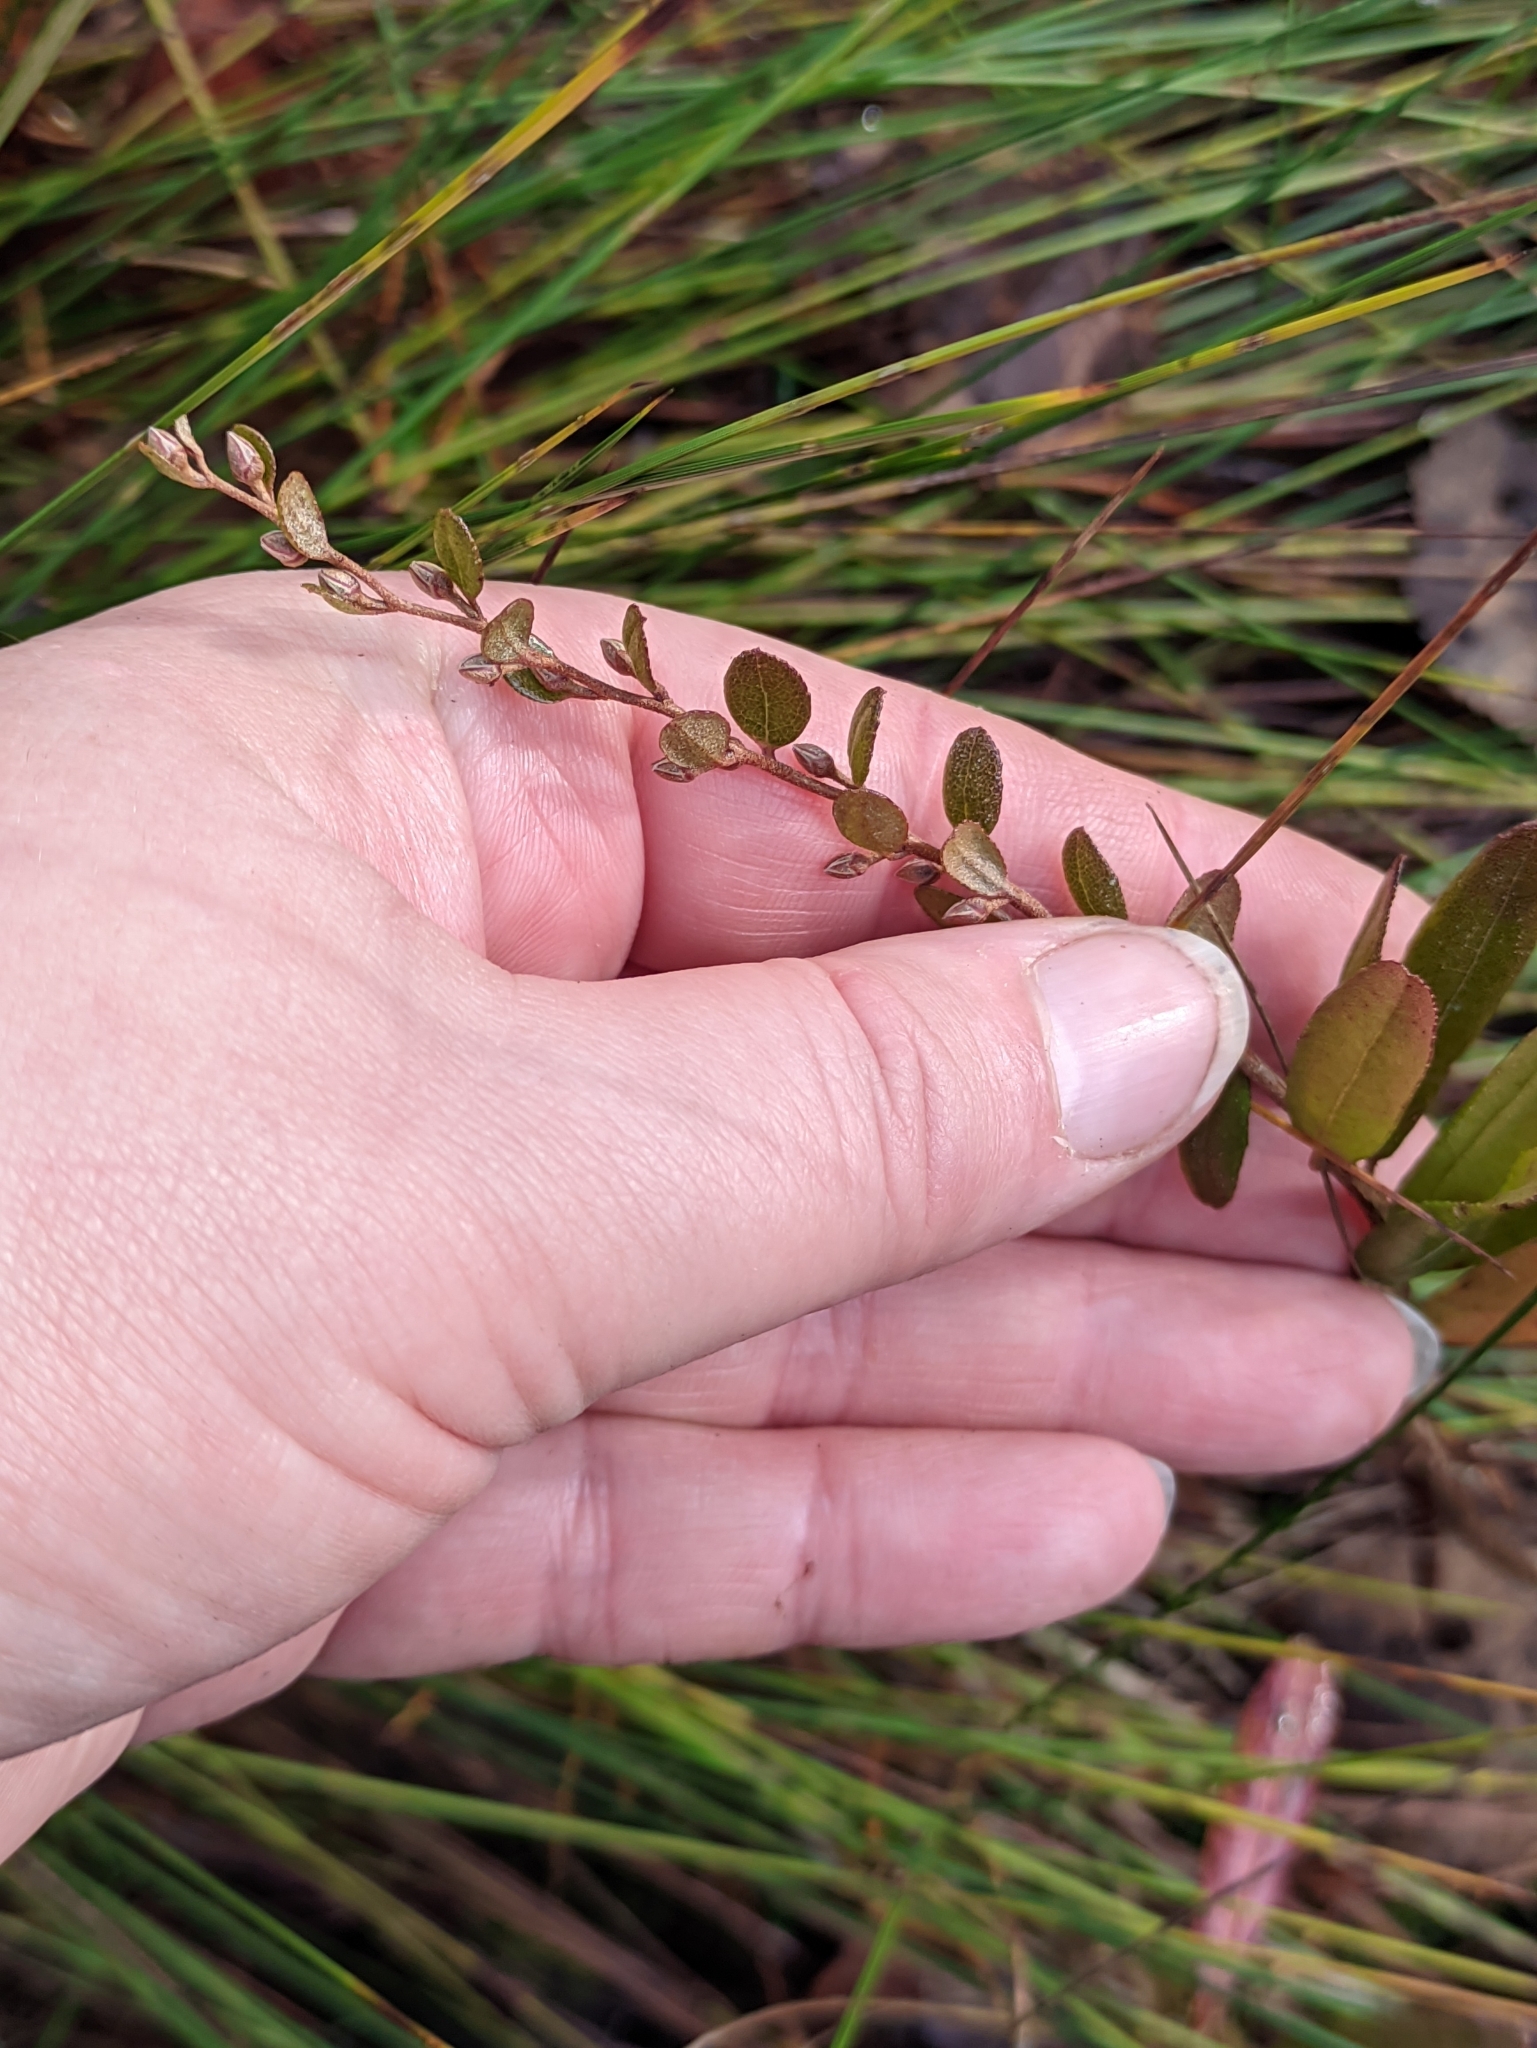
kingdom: Plantae
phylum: Tracheophyta
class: Magnoliopsida
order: Ericales
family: Ericaceae
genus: Chamaedaphne
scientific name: Chamaedaphne calyculata
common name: Leatherleaf
